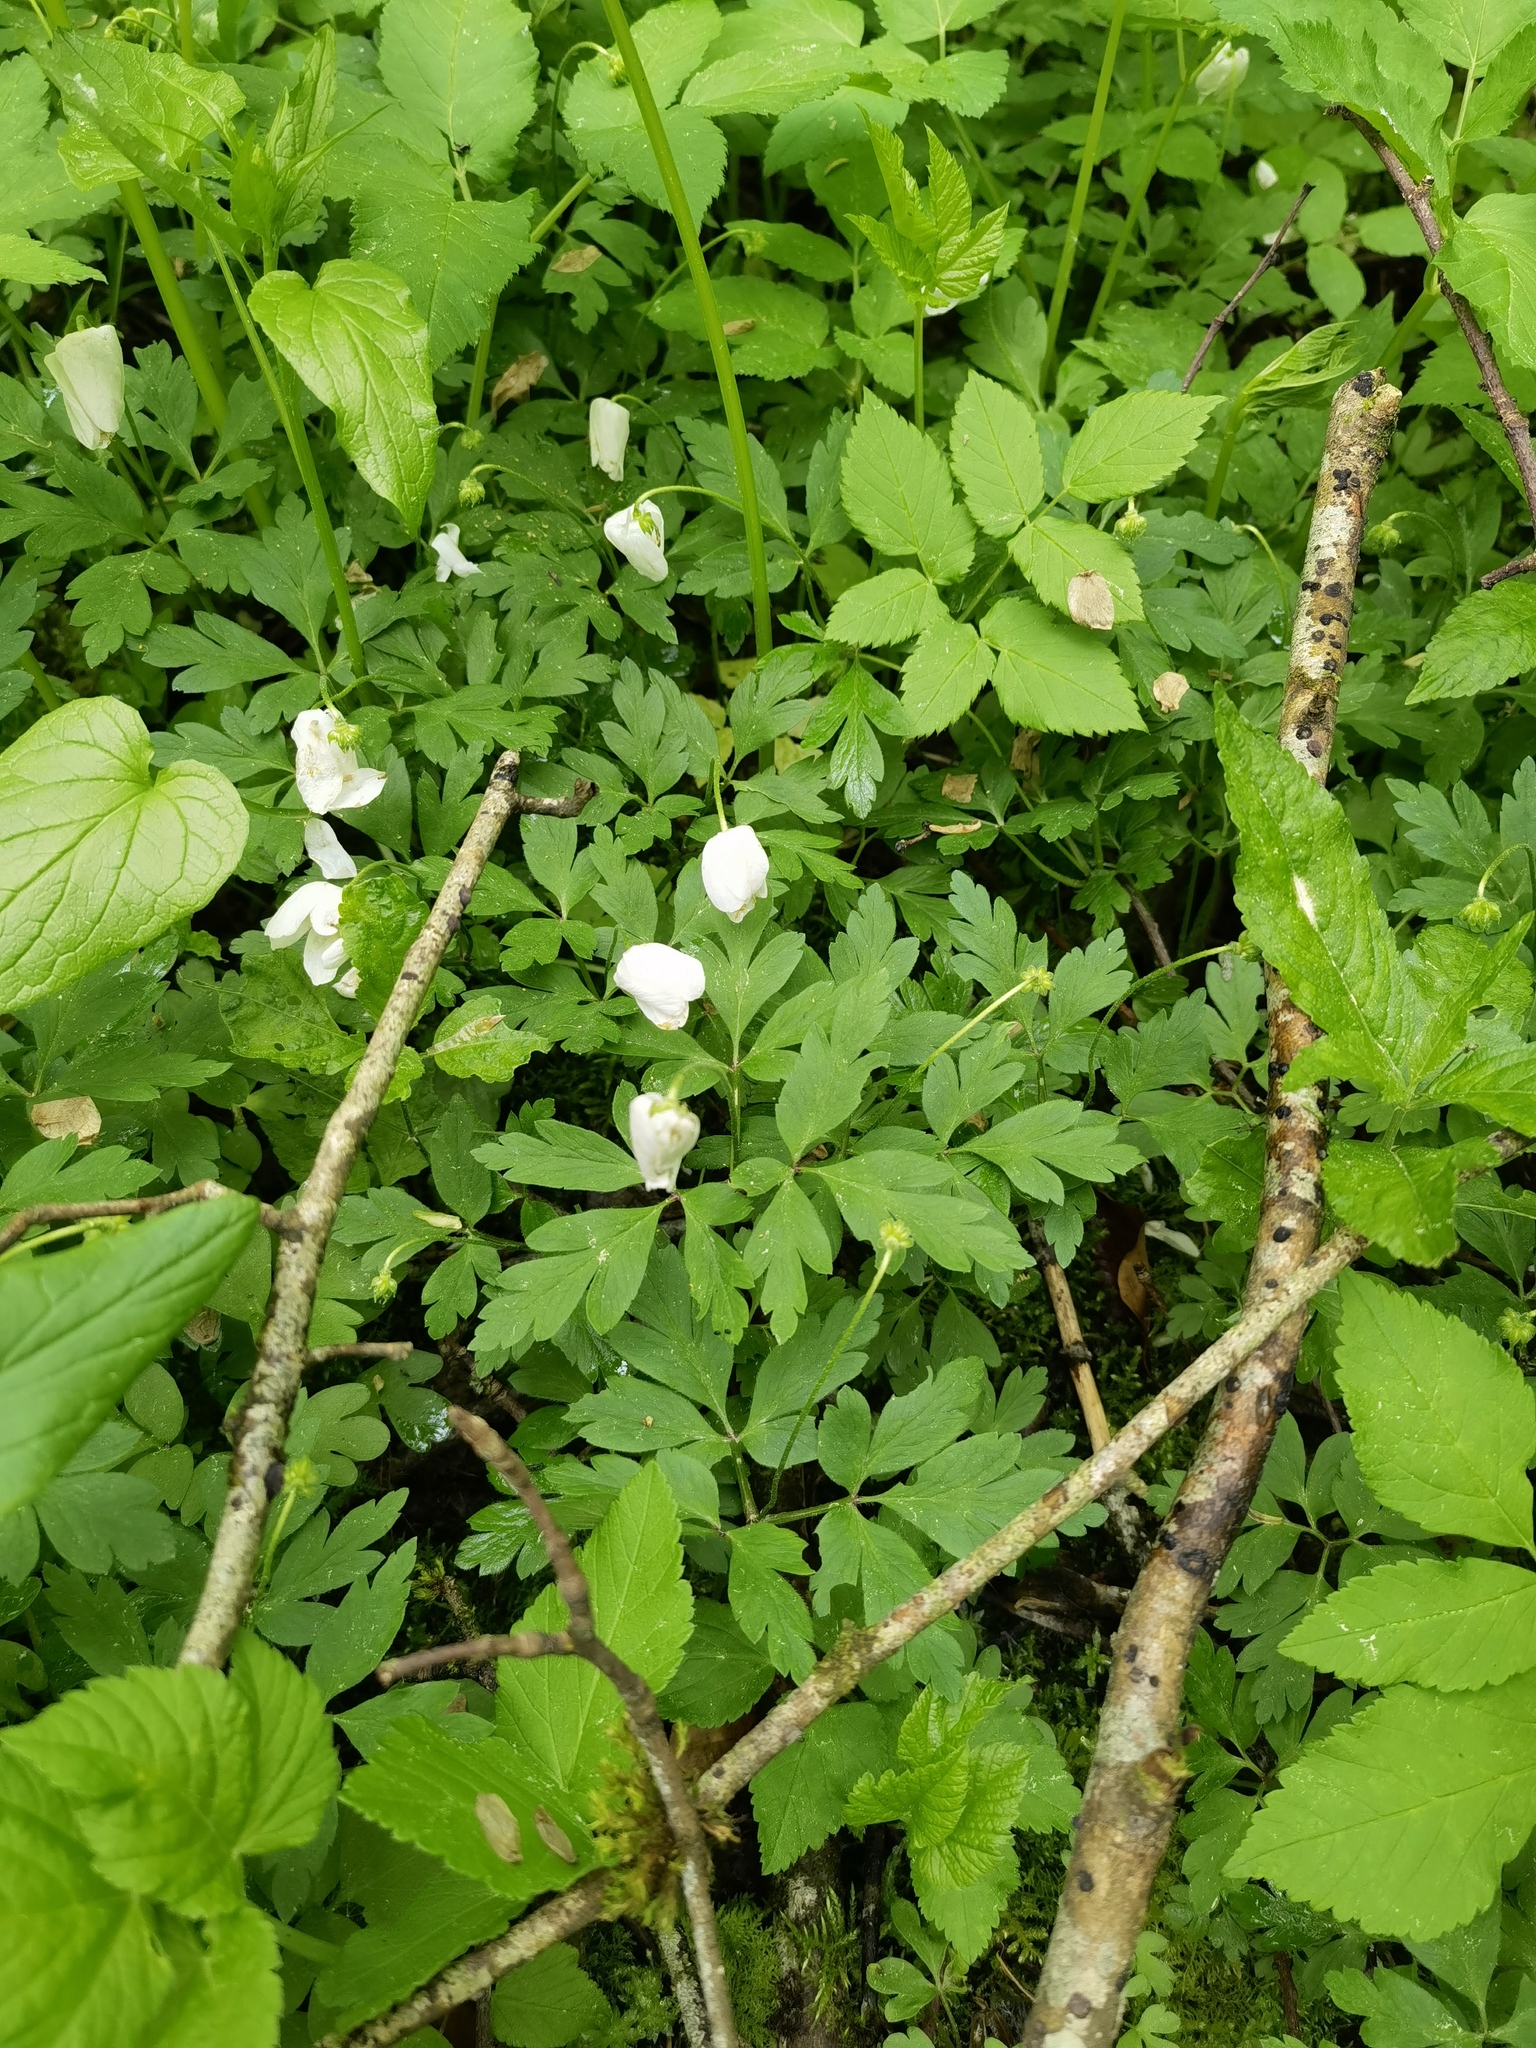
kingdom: Plantae
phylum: Tracheophyta
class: Magnoliopsida
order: Ranunculales
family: Ranunculaceae
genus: Anemone
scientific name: Anemone nemorosa
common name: Wood anemone
